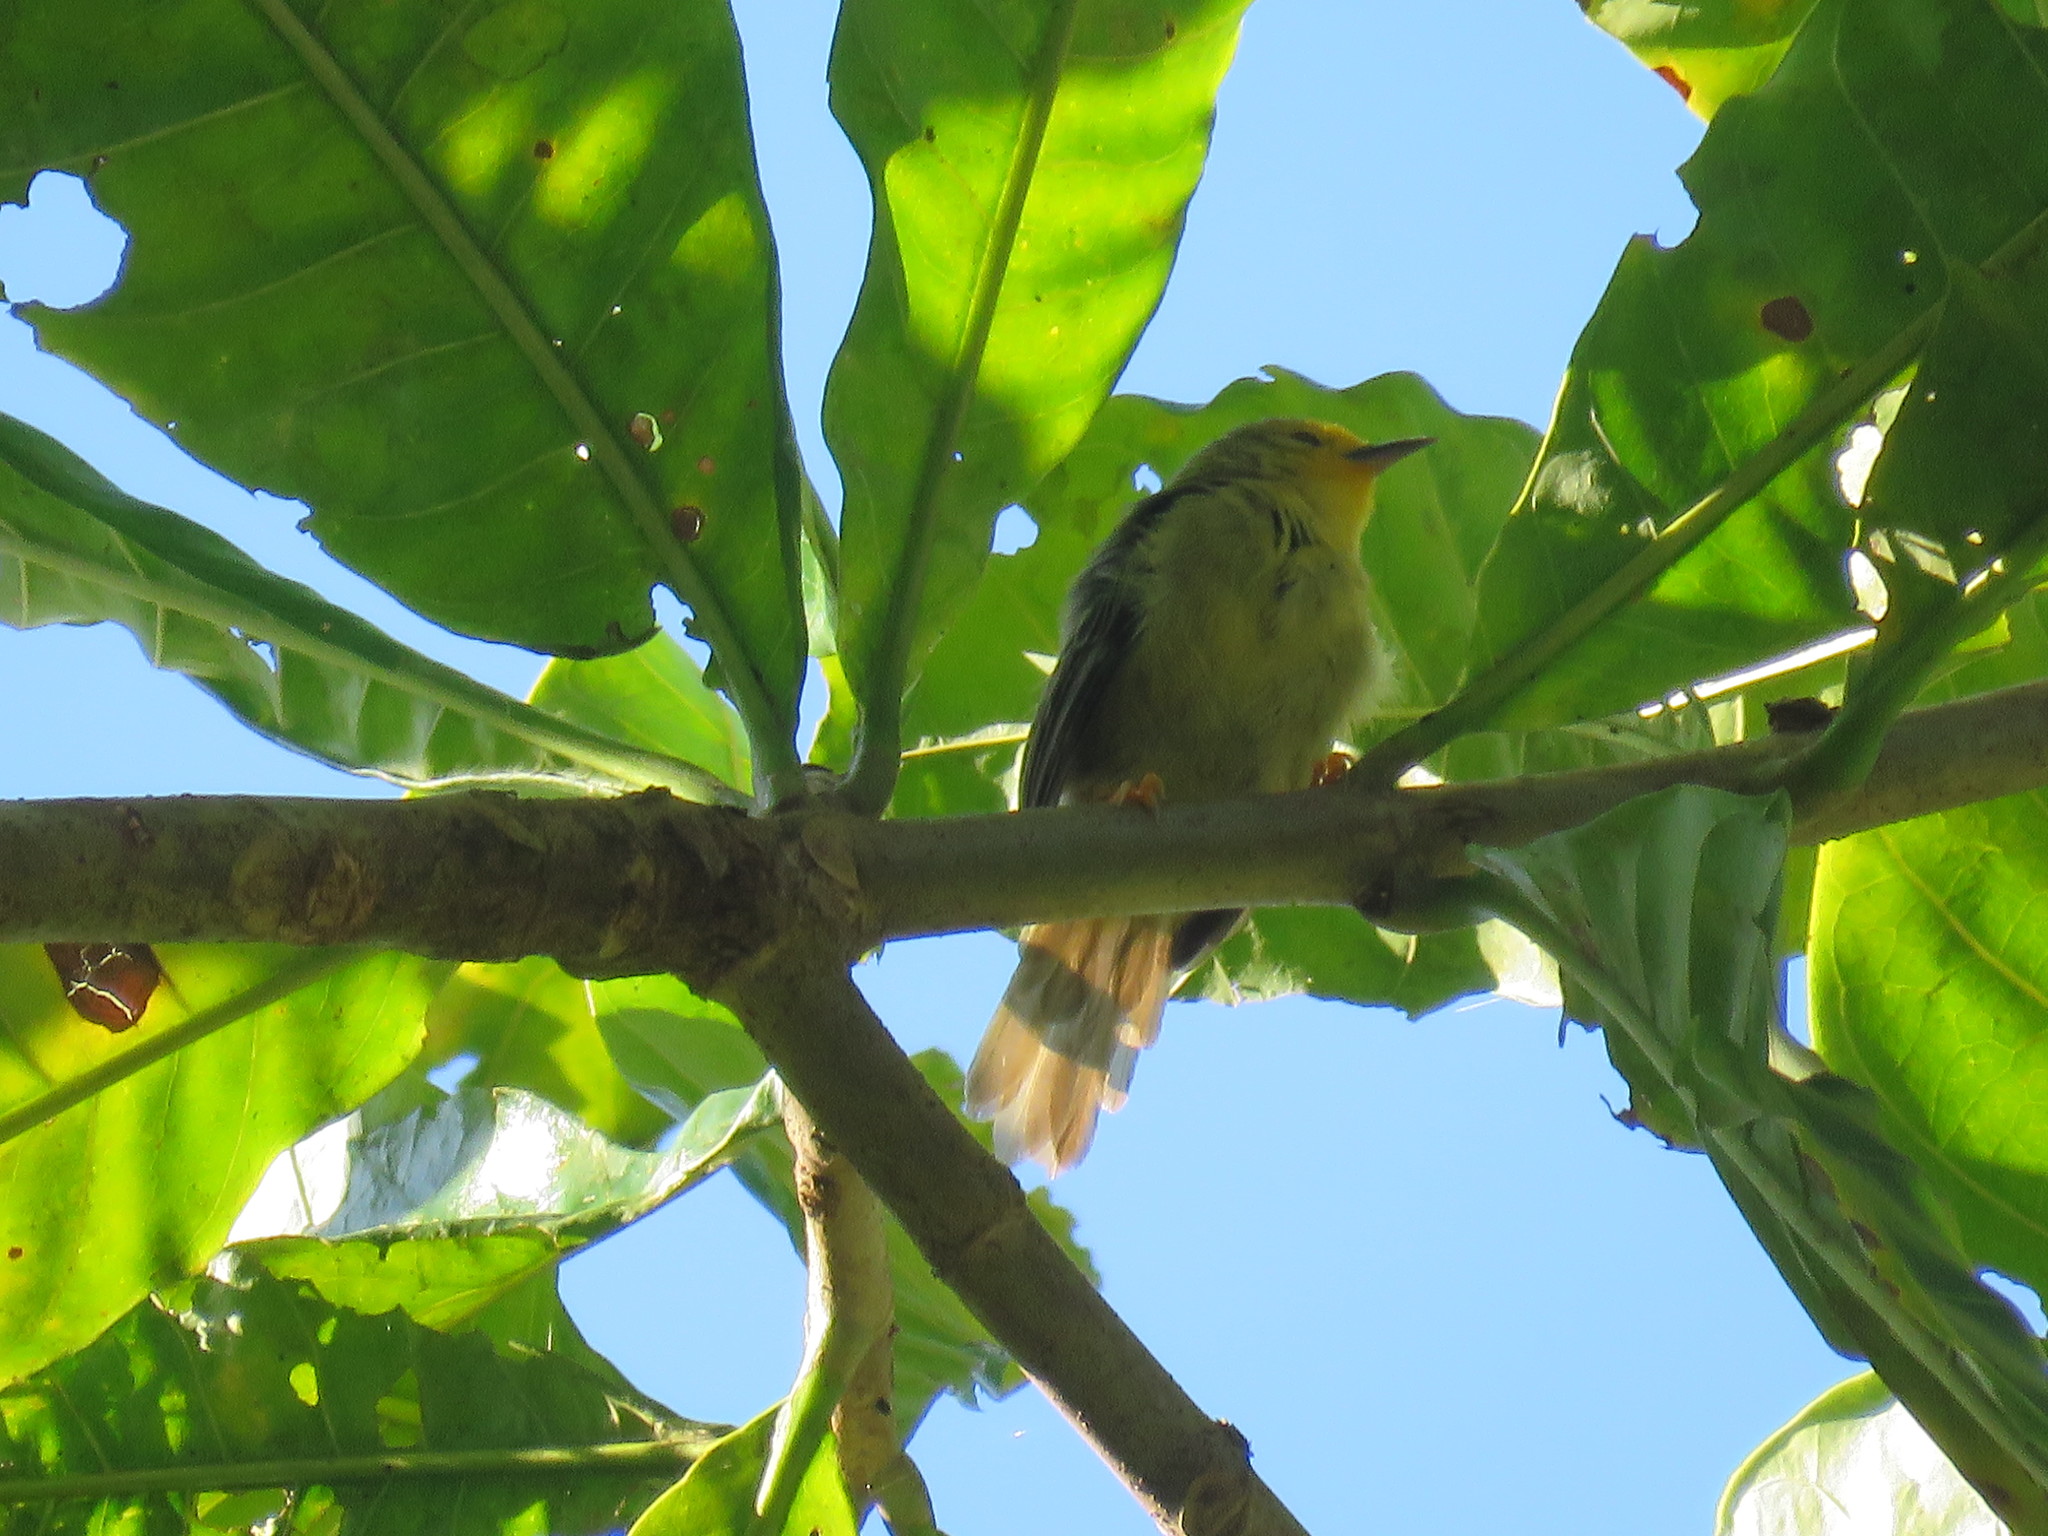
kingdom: Animalia
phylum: Chordata
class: Aves
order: Passeriformes
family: Furnariidae
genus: Metopothrix
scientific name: Metopothrix aurantiaca
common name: Orange-fronted plushcrown
